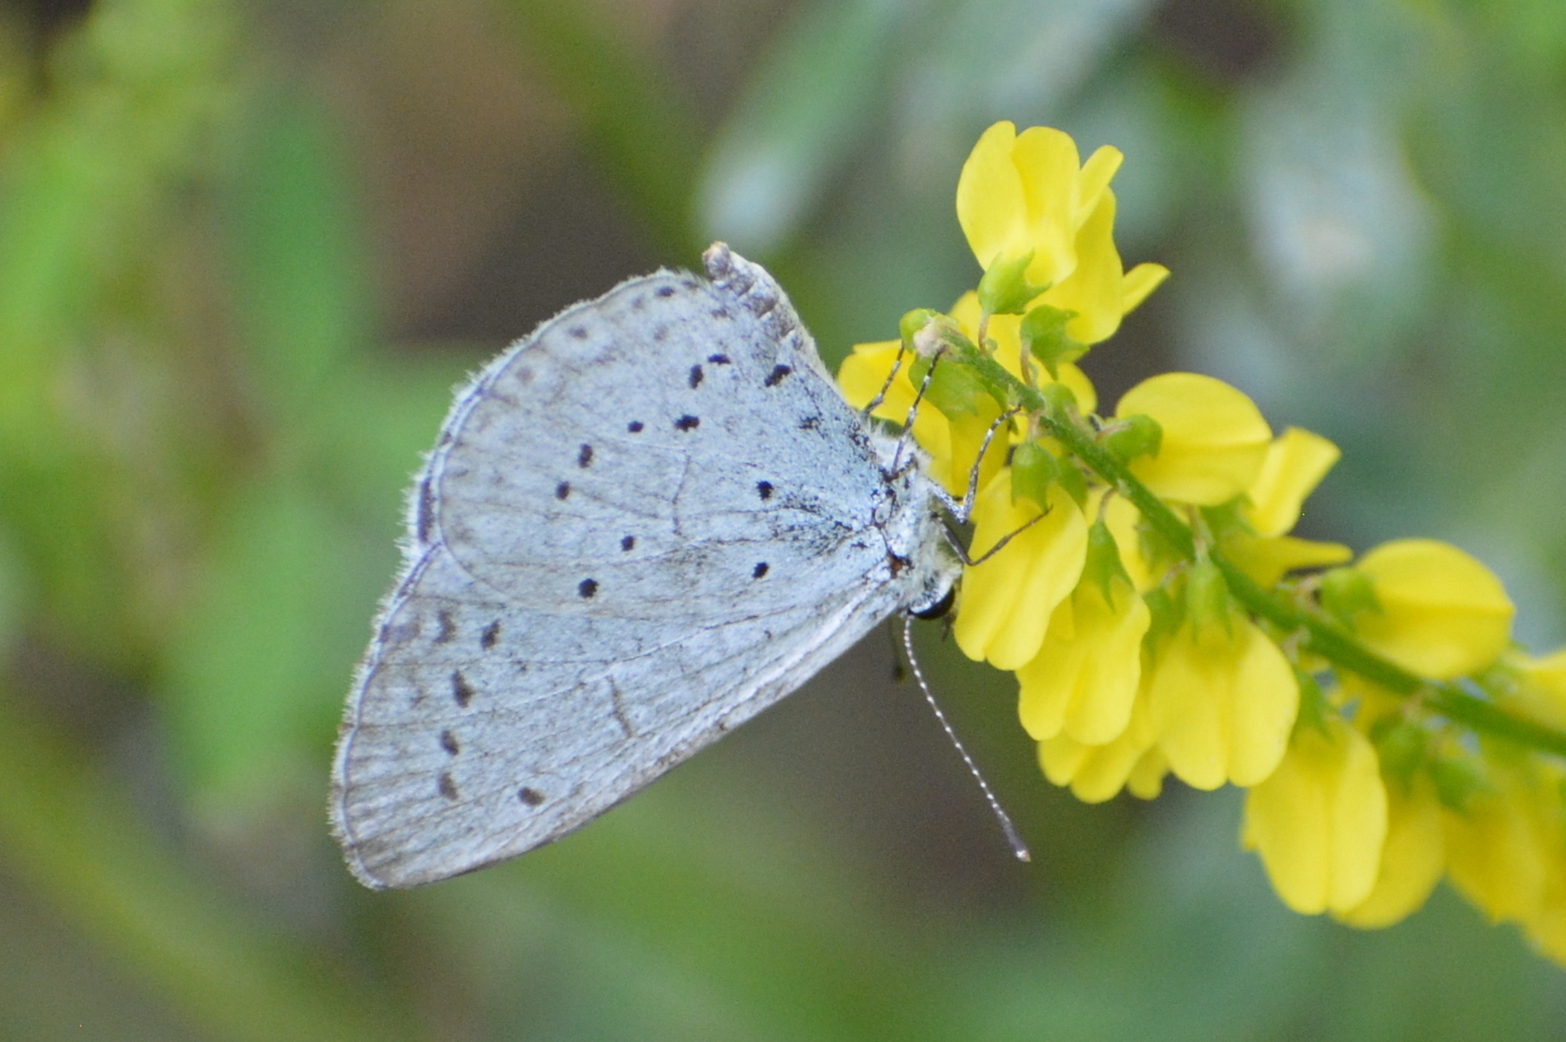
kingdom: Animalia
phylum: Arthropoda
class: Insecta
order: Lepidoptera
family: Lycaenidae
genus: Celastrina
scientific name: Celastrina argiolus
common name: Holly blue
